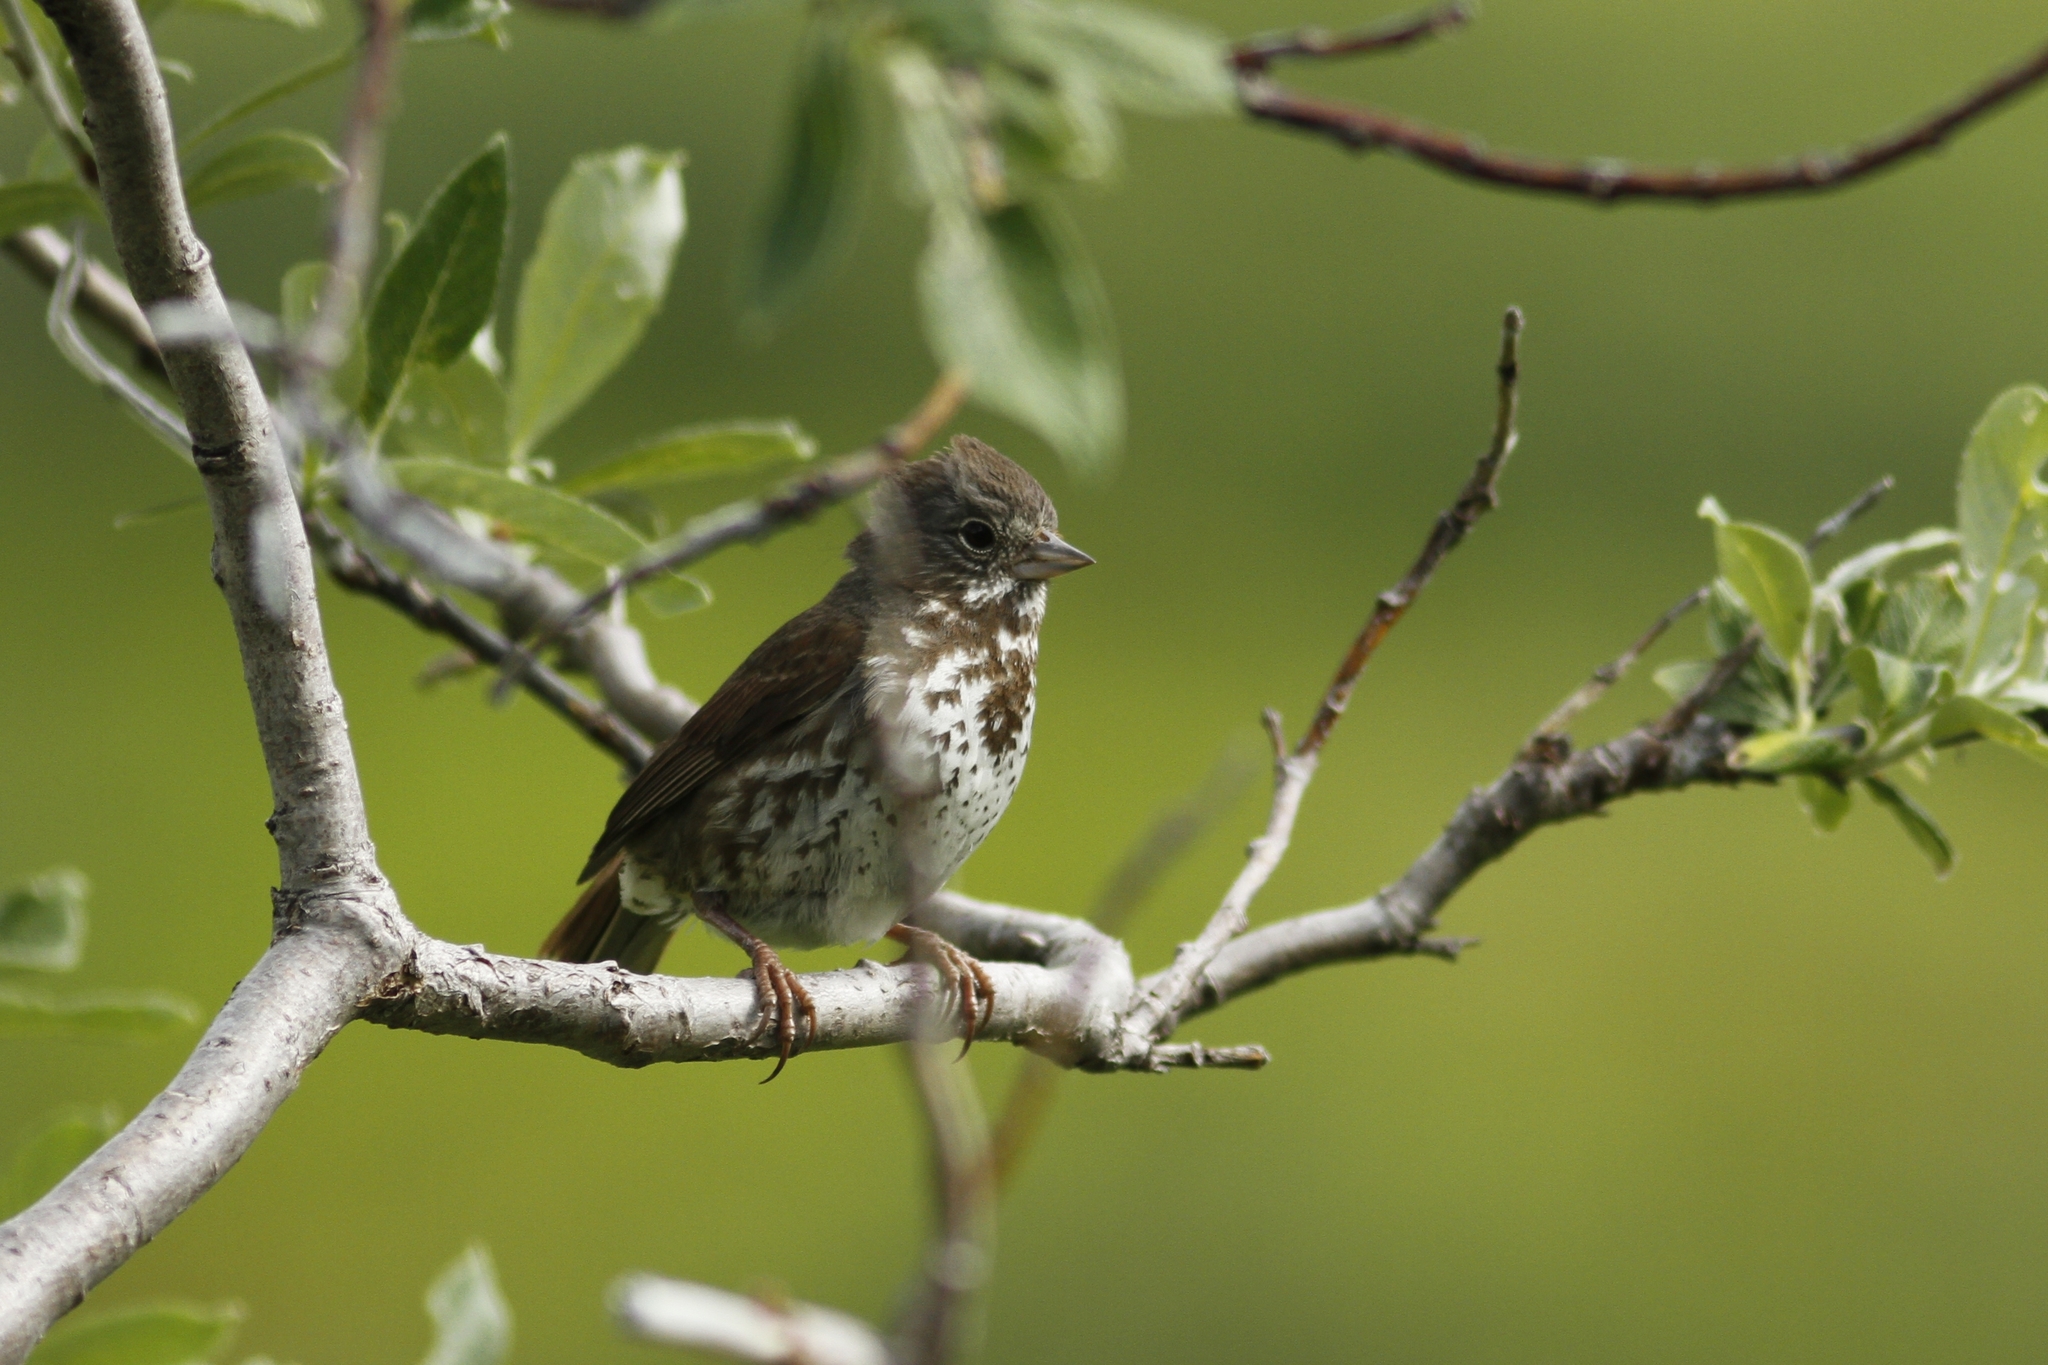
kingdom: Animalia
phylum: Chordata
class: Aves
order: Passeriformes
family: Passerellidae
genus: Passerella
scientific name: Passerella iliaca
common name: Fox sparrow
